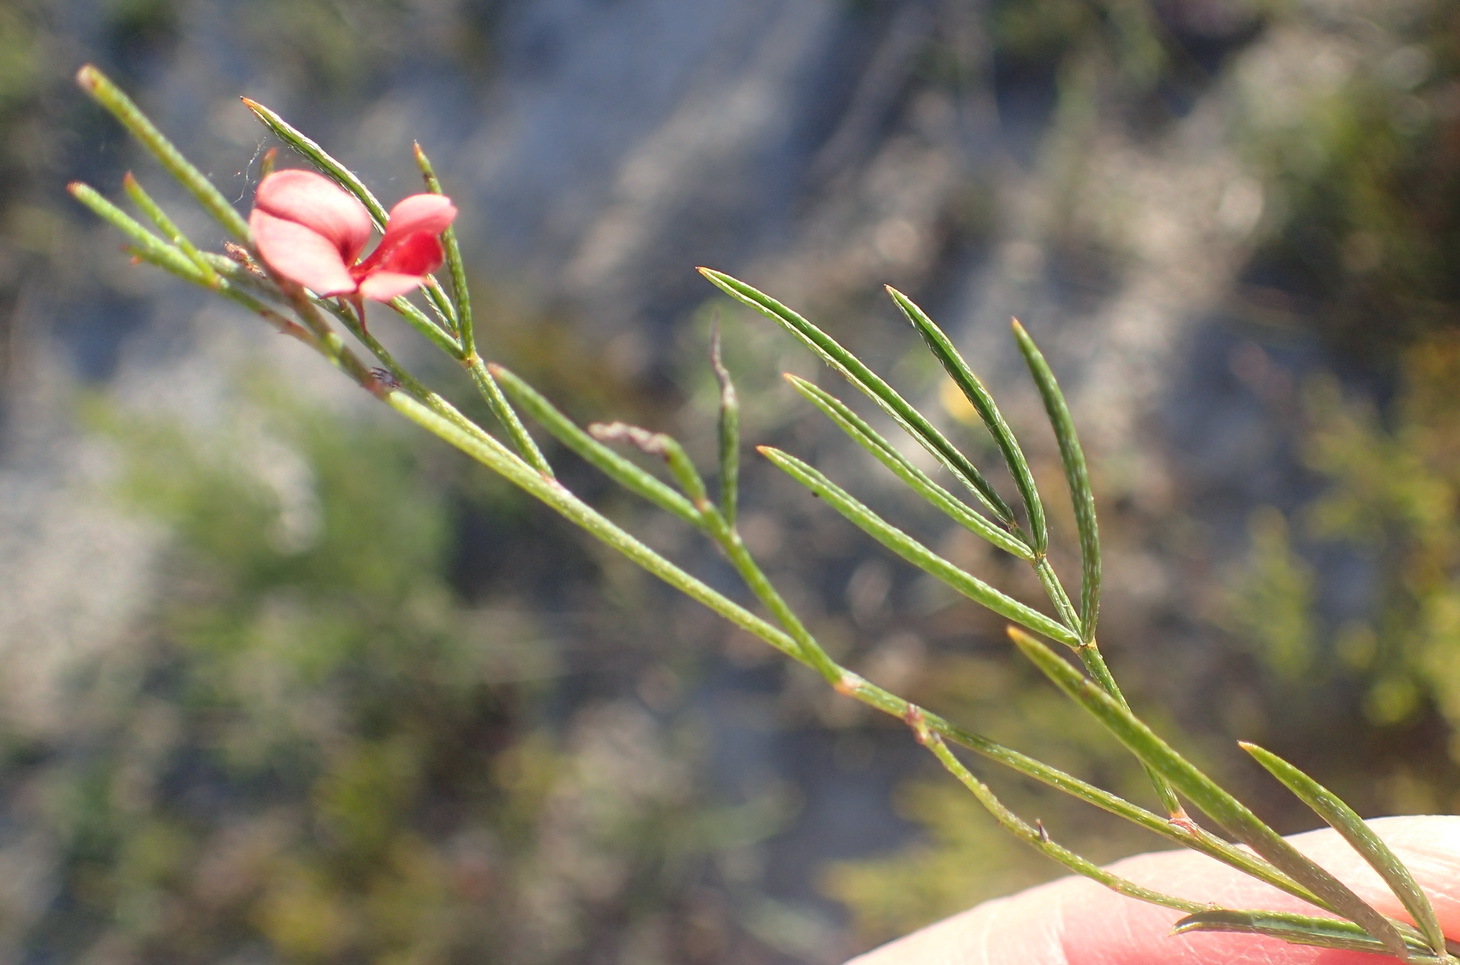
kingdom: Plantae
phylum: Tracheophyta
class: Magnoliopsida
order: Fabales
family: Fabaceae
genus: Indigofera
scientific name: Indigofera disticha
